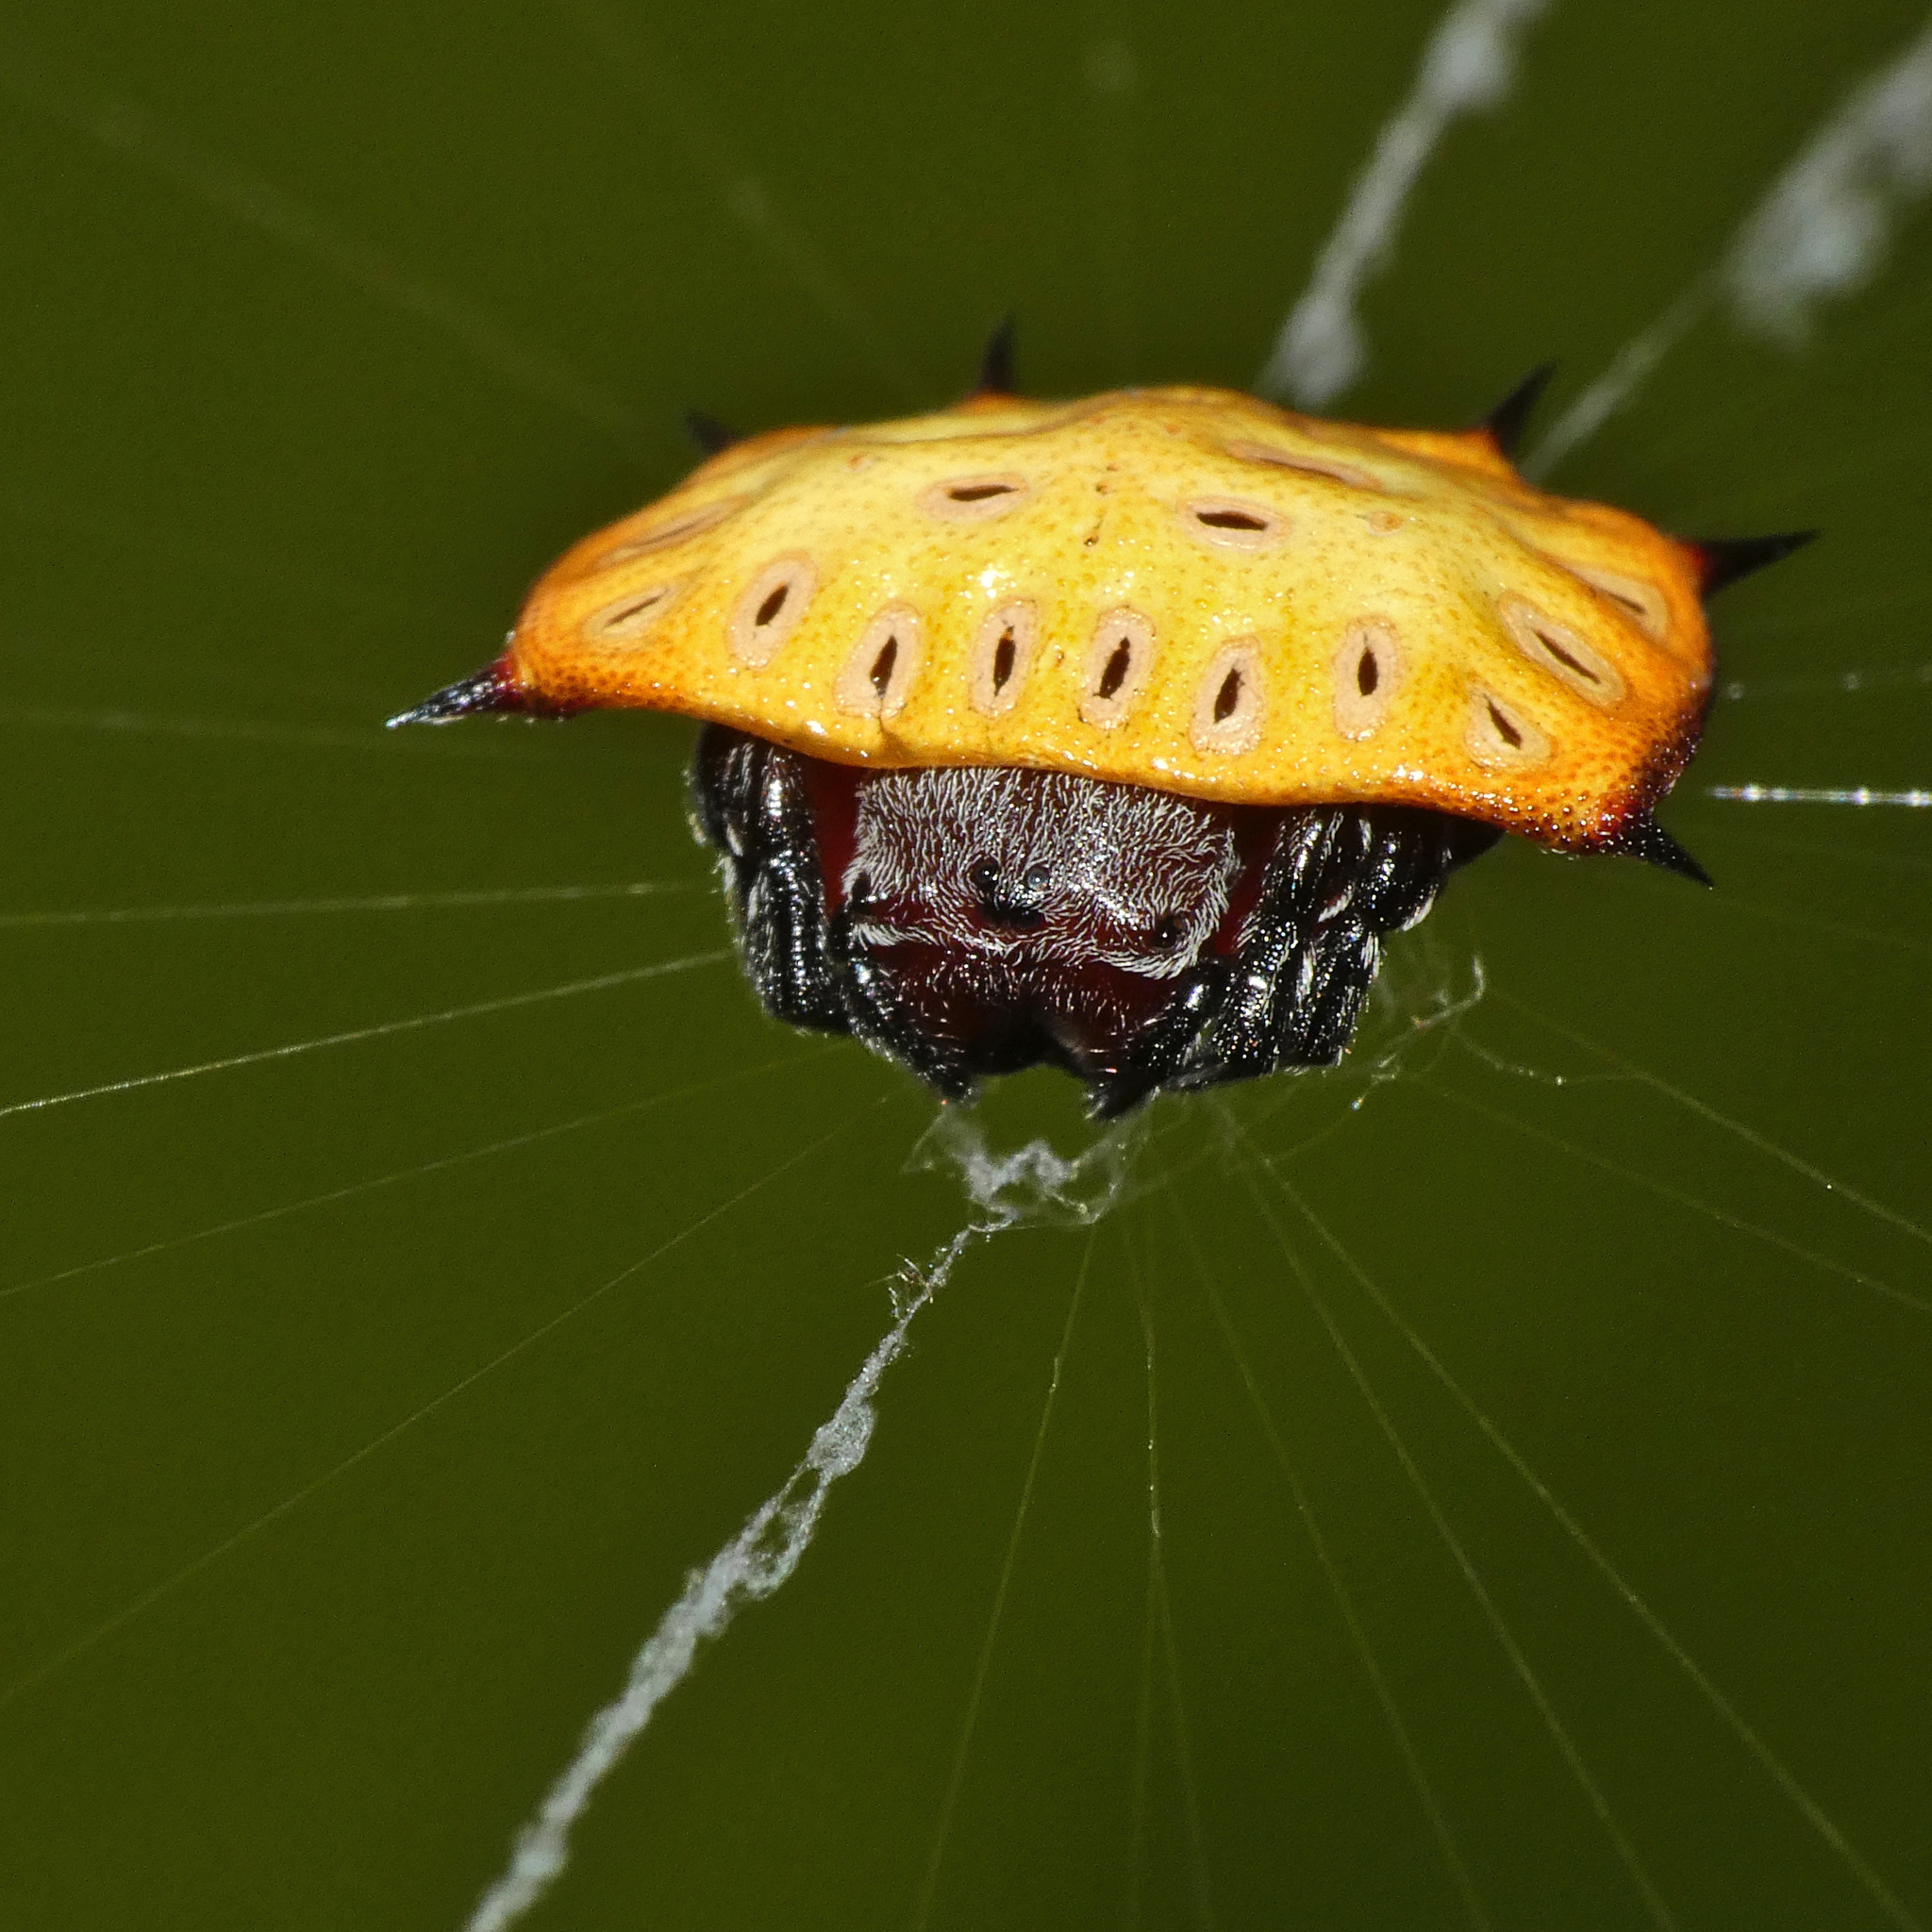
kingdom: Animalia
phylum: Arthropoda
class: Arachnida
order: Araneae
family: Araneidae
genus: Isoxya
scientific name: Isoxya tabulata
